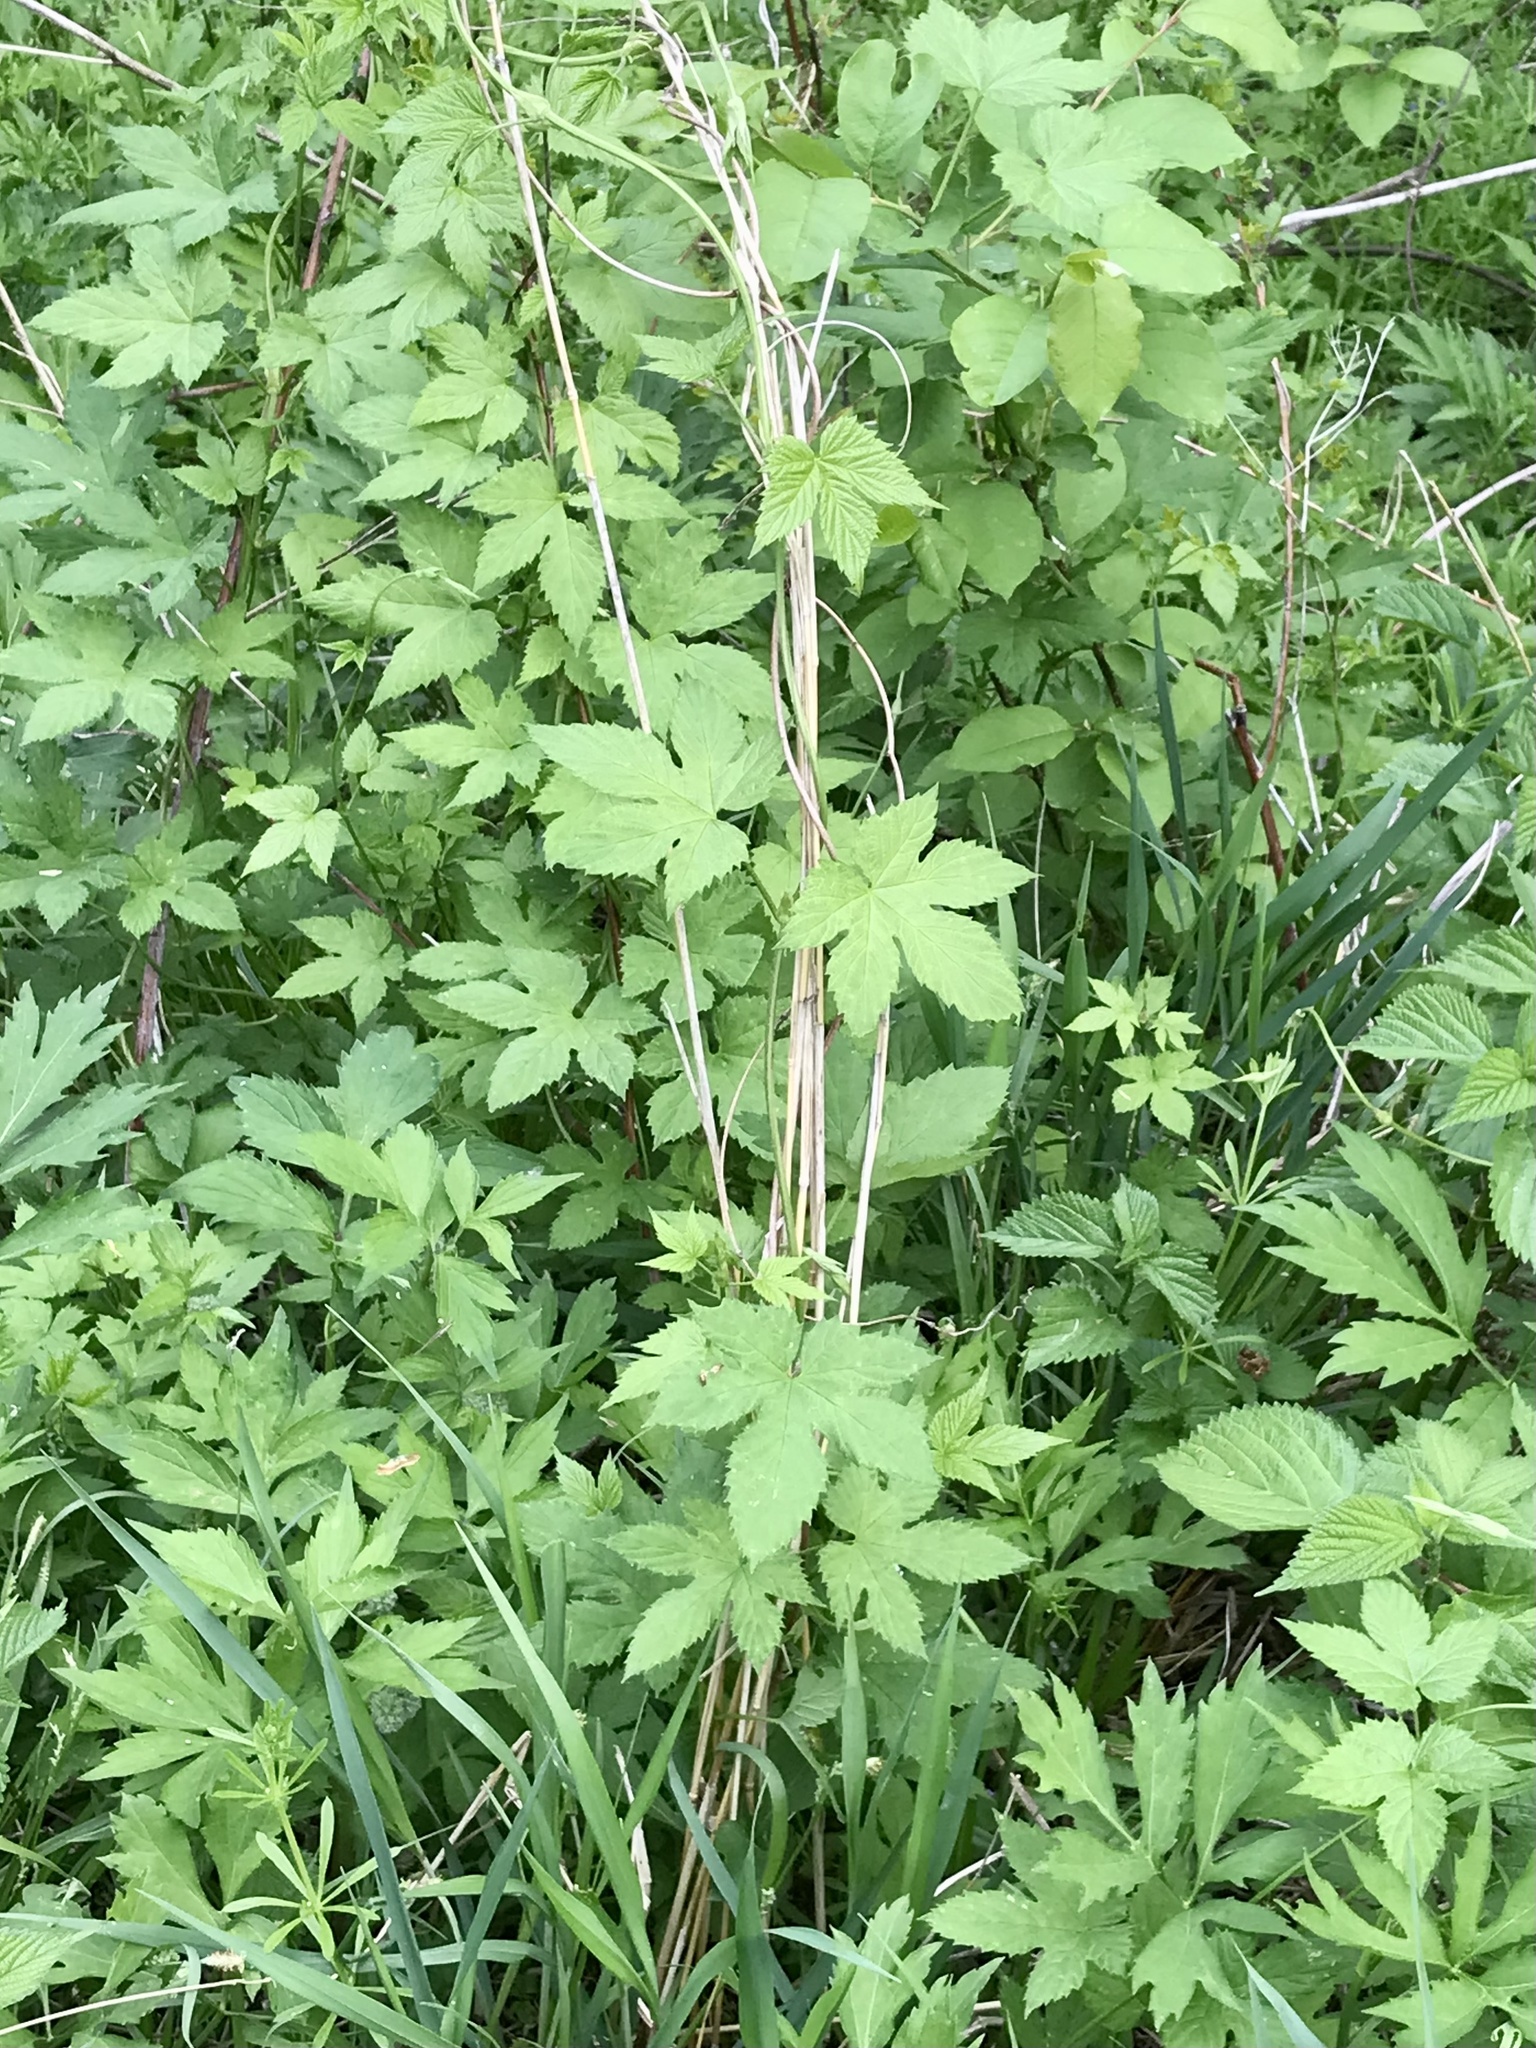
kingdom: Plantae
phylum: Tracheophyta
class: Magnoliopsida
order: Rosales
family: Cannabaceae
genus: Humulus
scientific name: Humulus lupulus
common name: Hop
